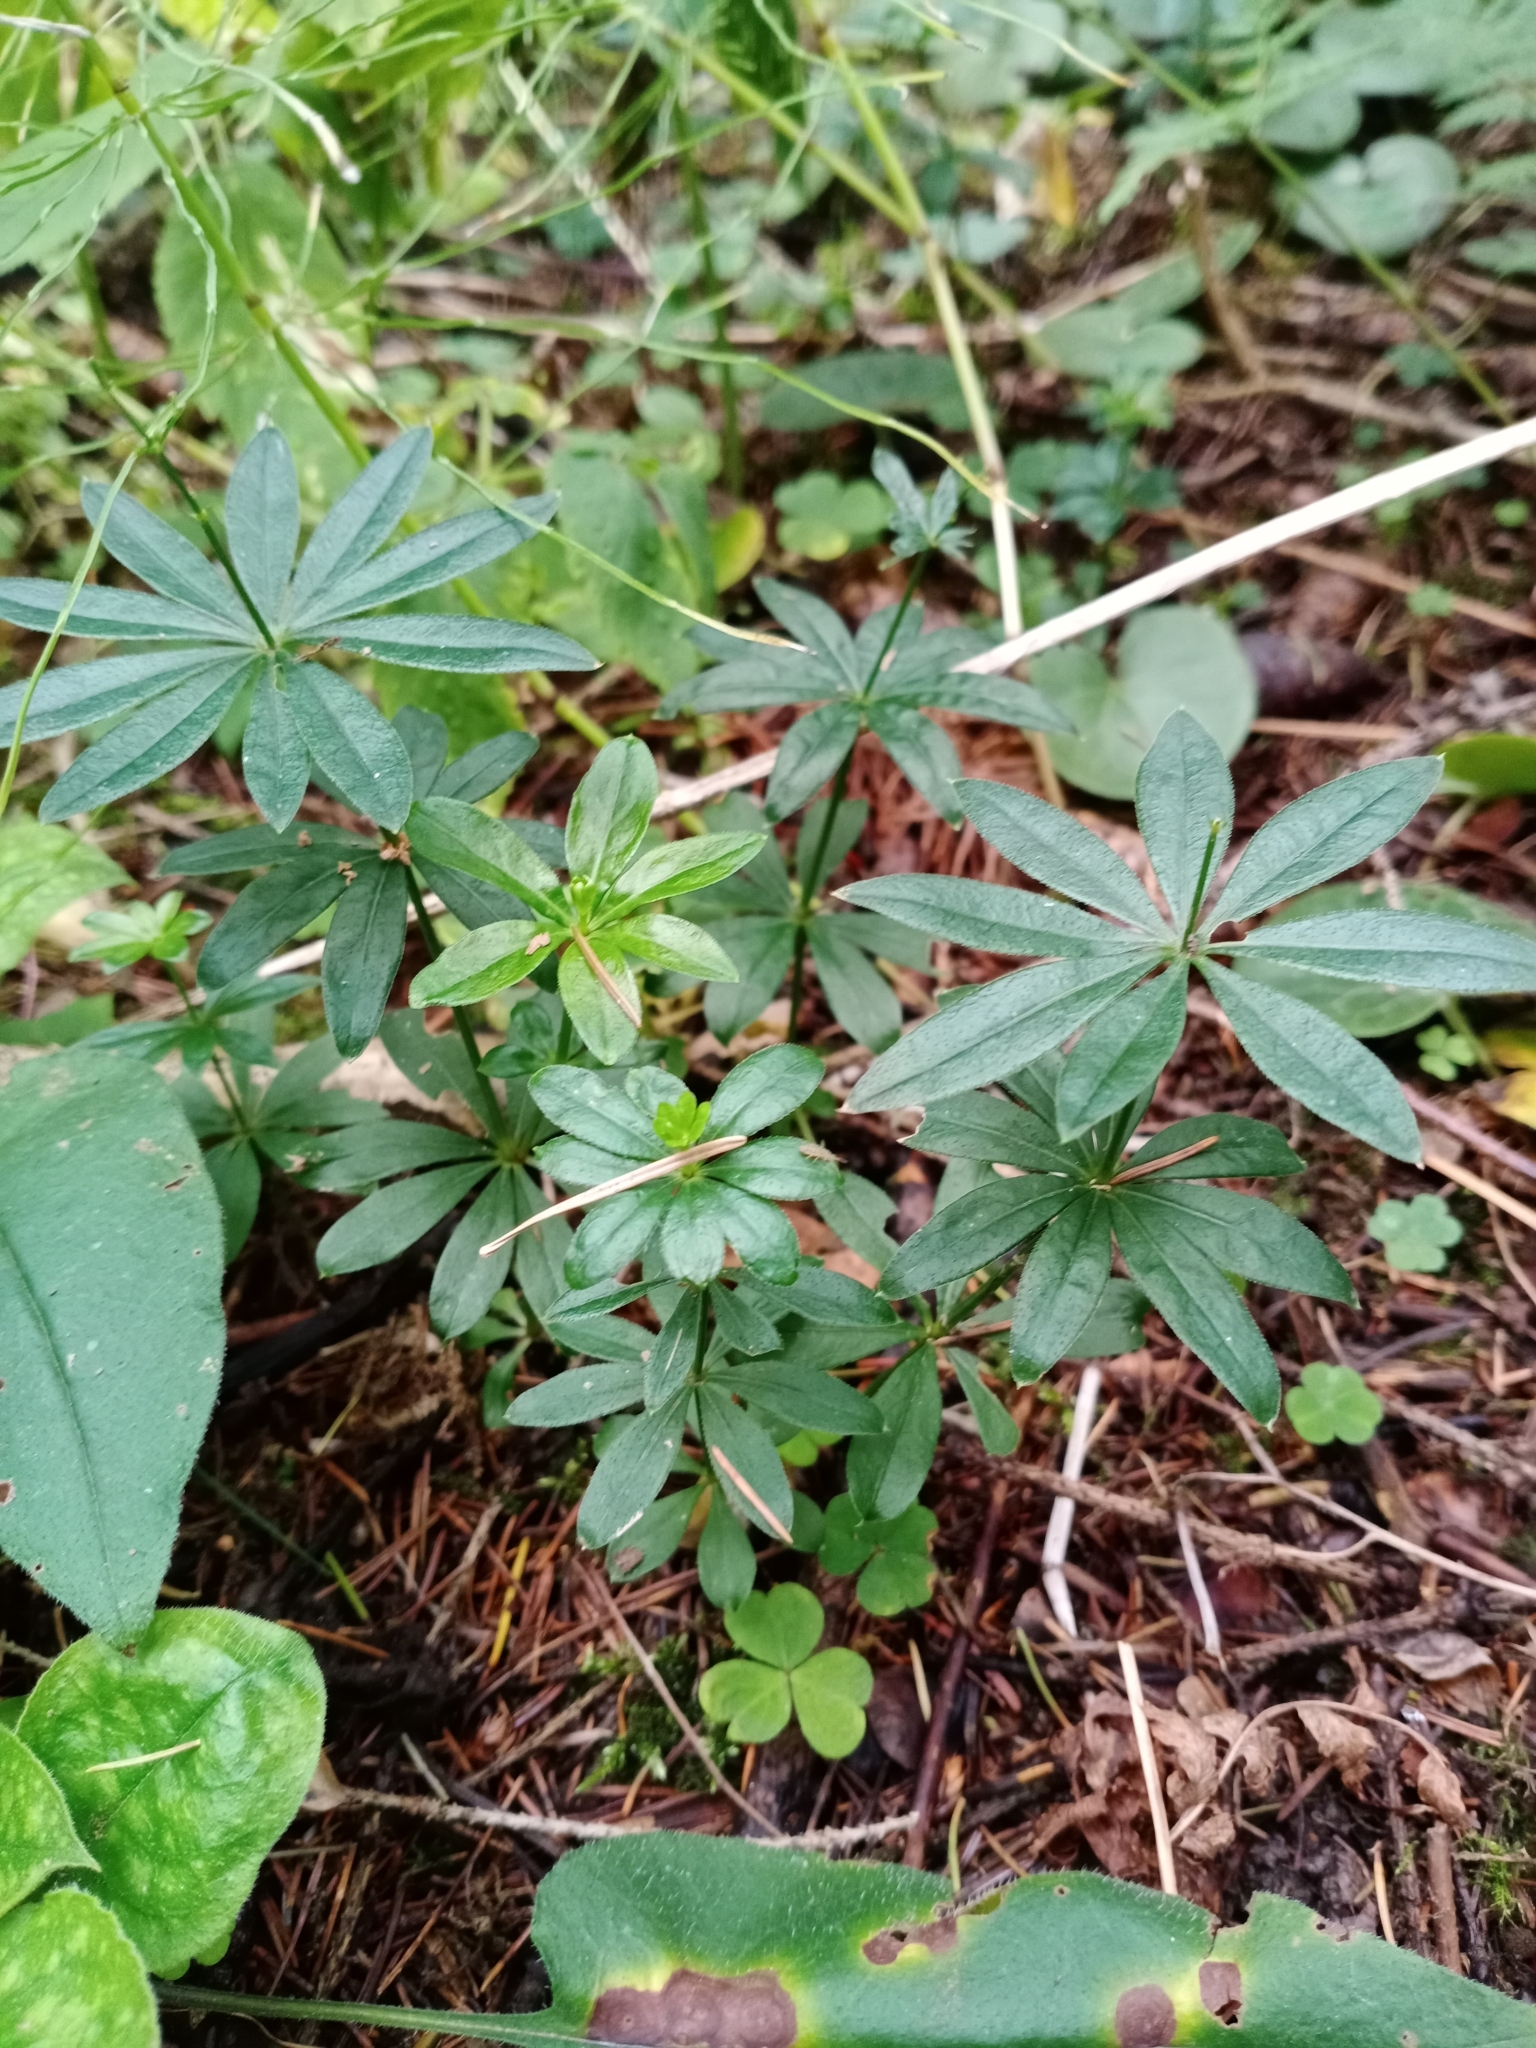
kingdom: Plantae
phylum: Tracheophyta
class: Magnoliopsida
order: Gentianales
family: Rubiaceae
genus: Galium
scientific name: Galium odoratum
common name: Sweet woodruff
